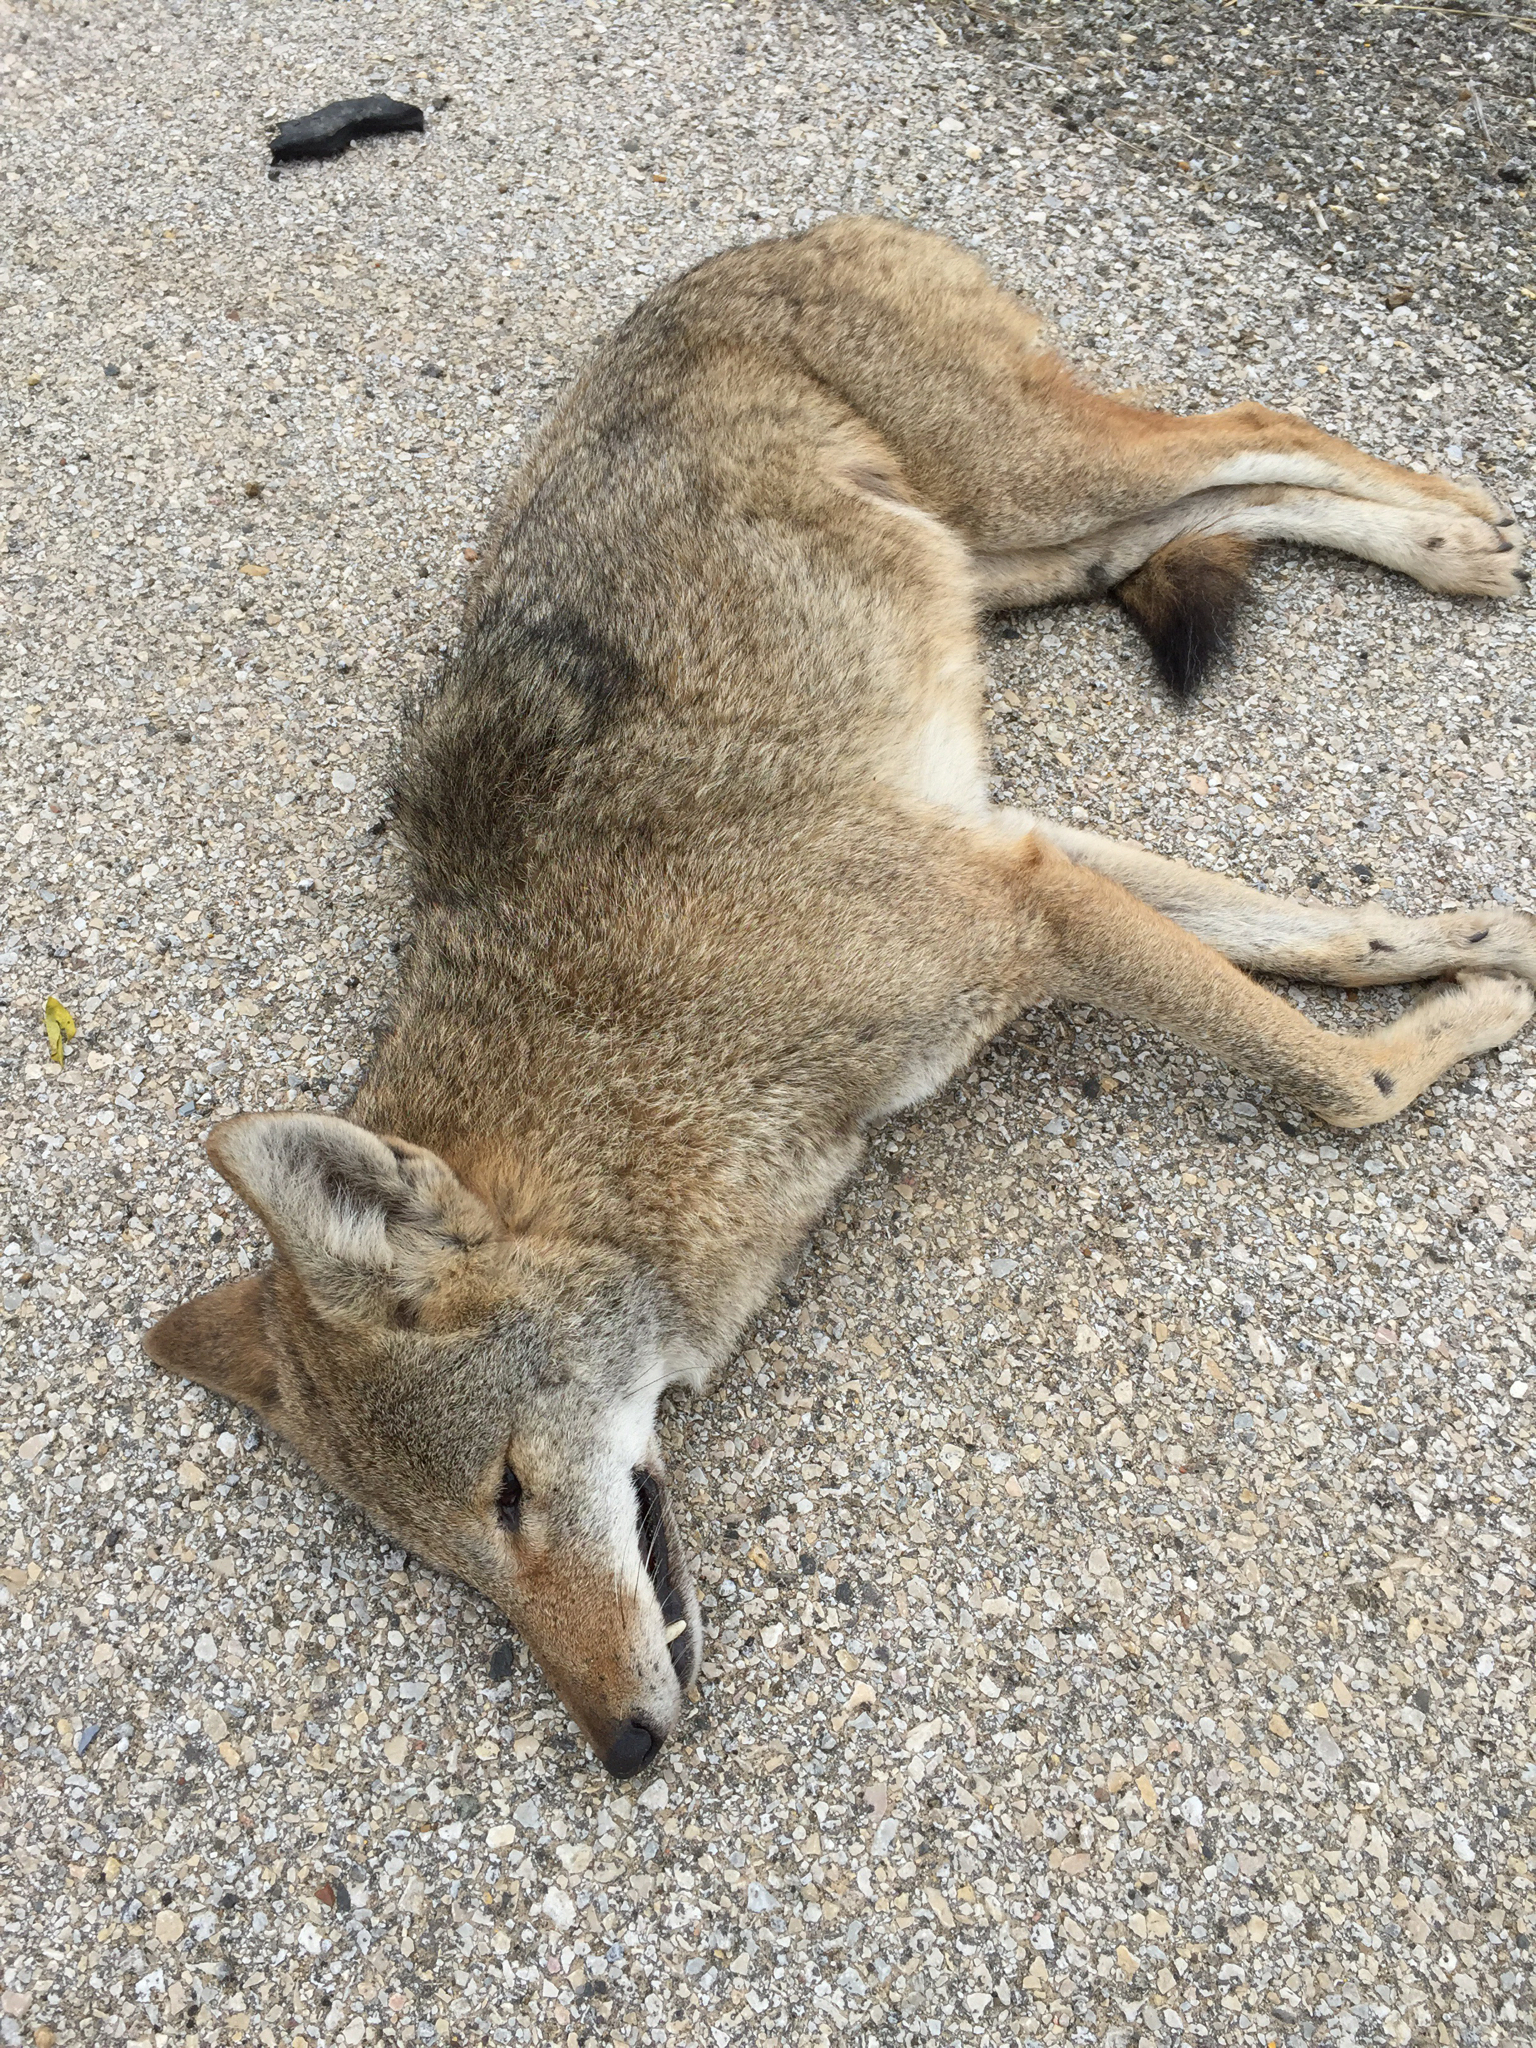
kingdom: Animalia
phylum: Chordata
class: Mammalia
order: Carnivora
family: Canidae
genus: Canis
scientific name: Canis latrans
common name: Coyote
